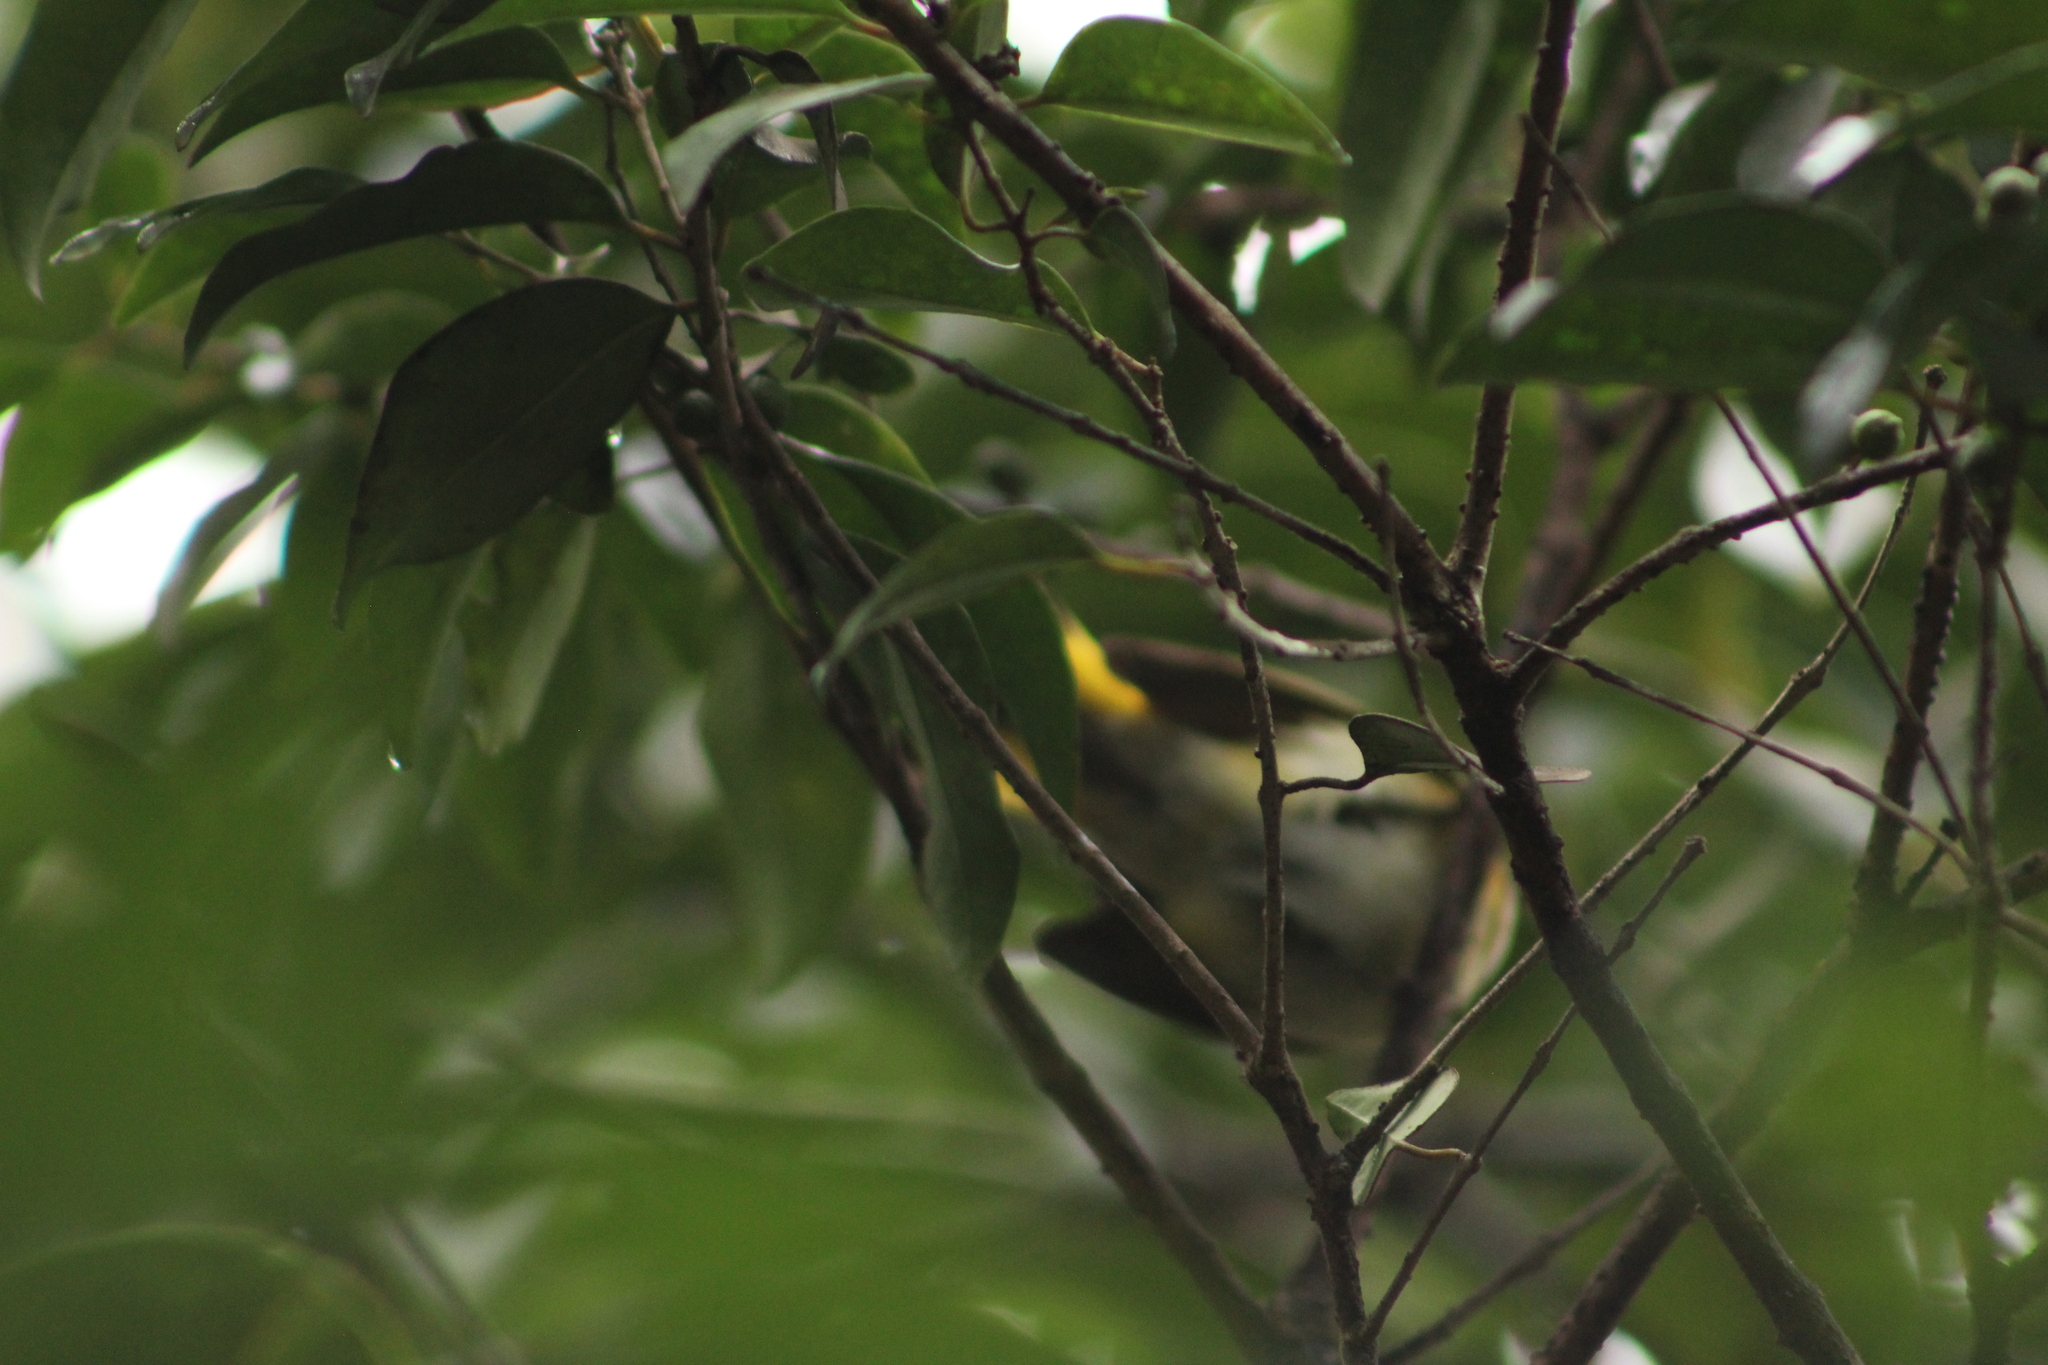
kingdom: Animalia
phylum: Chordata
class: Aves
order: Passeriformes
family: Parulidae
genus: Setophaga
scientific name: Setophaga ruticilla
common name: American redstart
